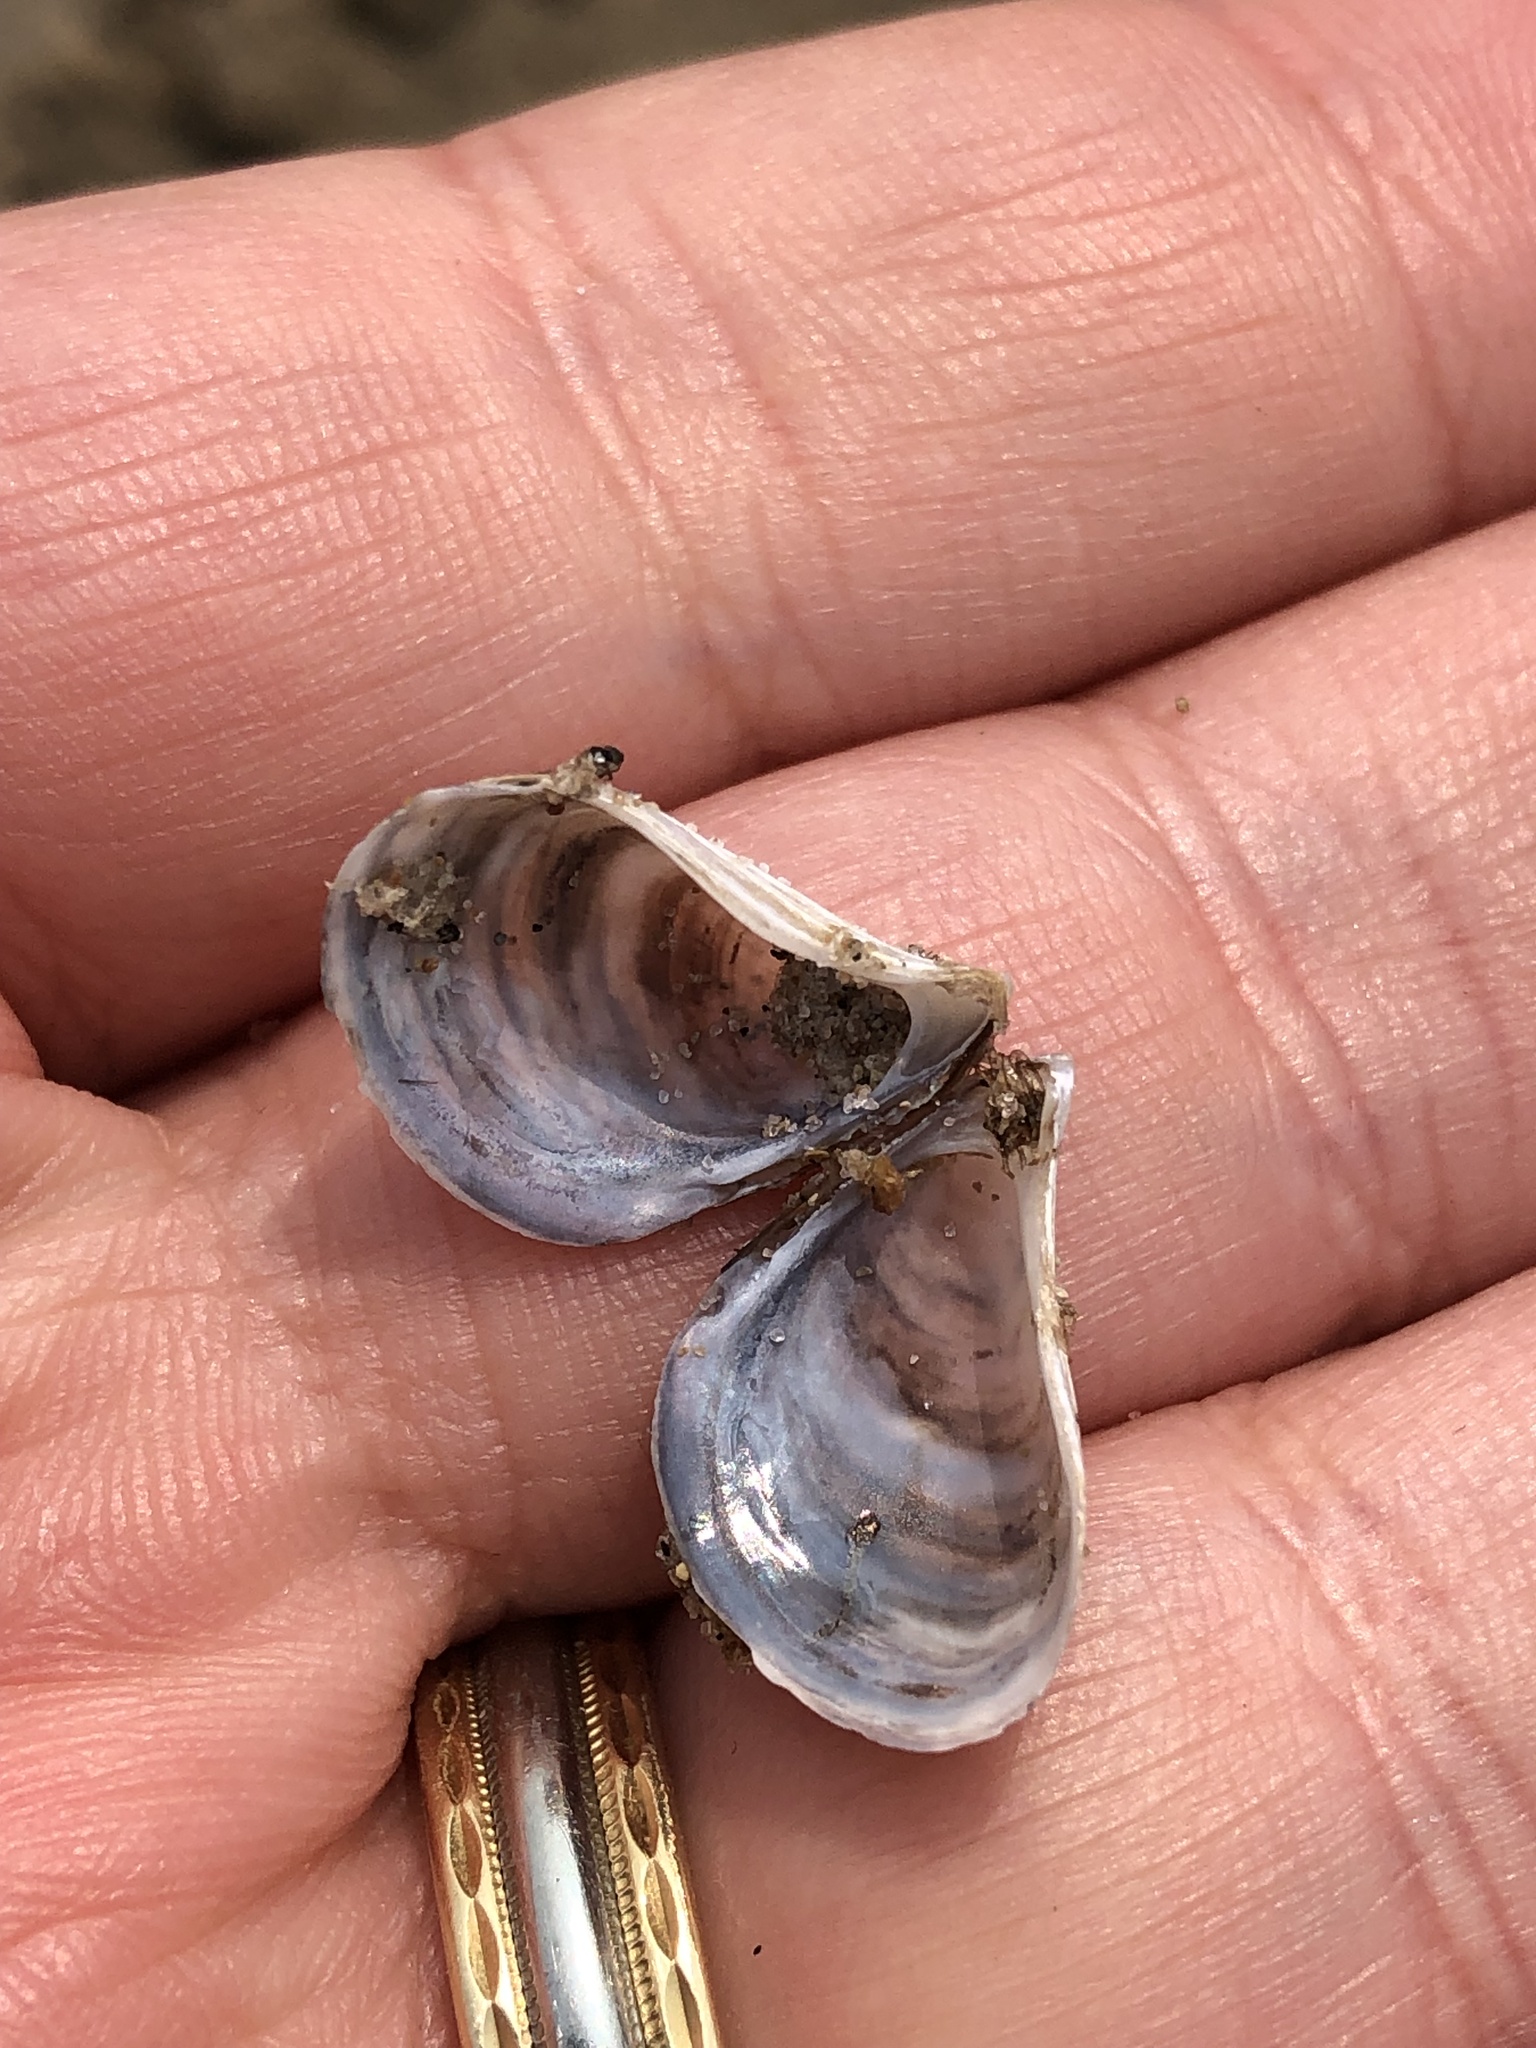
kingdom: Animalia
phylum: Mollusca
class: Bivalvia
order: Myida
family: Dreissenidae
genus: Dreissena
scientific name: Dreissena bugensis
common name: Quagga mussel
